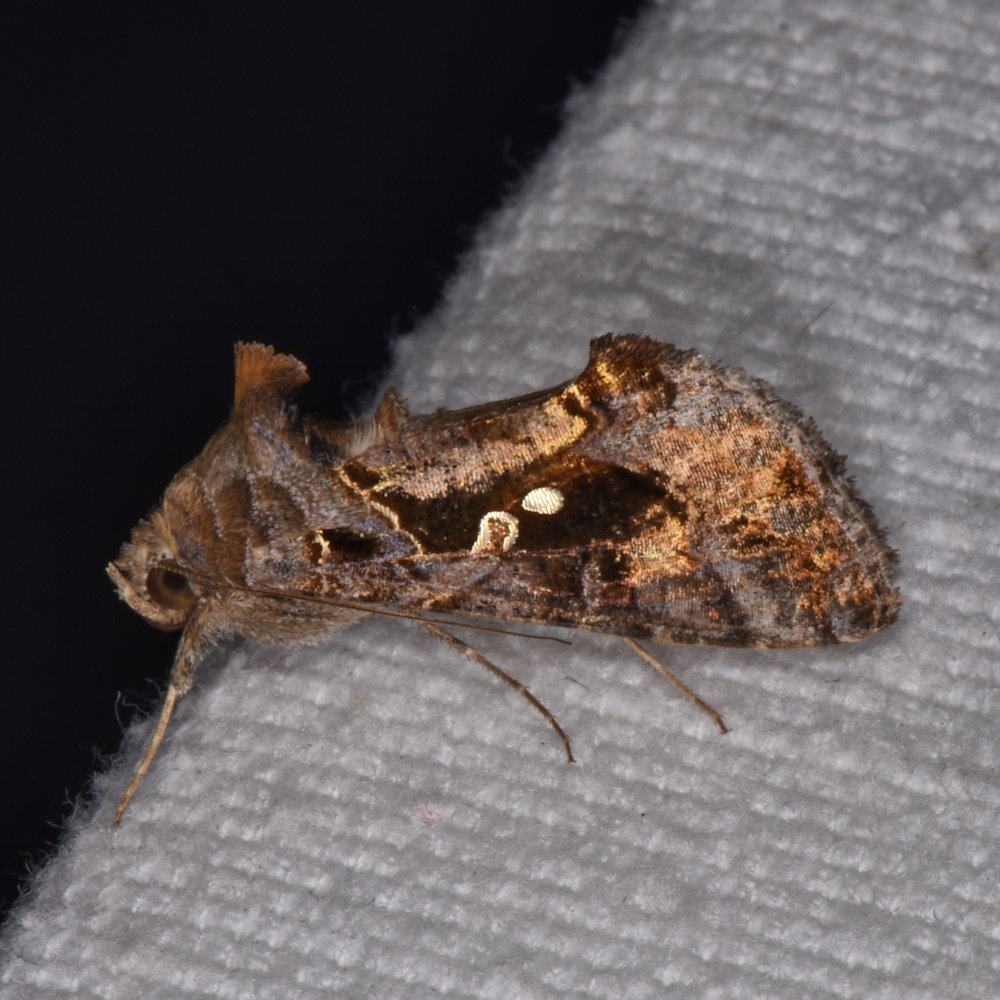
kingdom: Animalia
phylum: Arthropoda
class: Insecta
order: Lepidoptera
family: Noctuidae
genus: Chrysodeixis
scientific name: Chrysodeixis includens
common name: Cutworm moth
